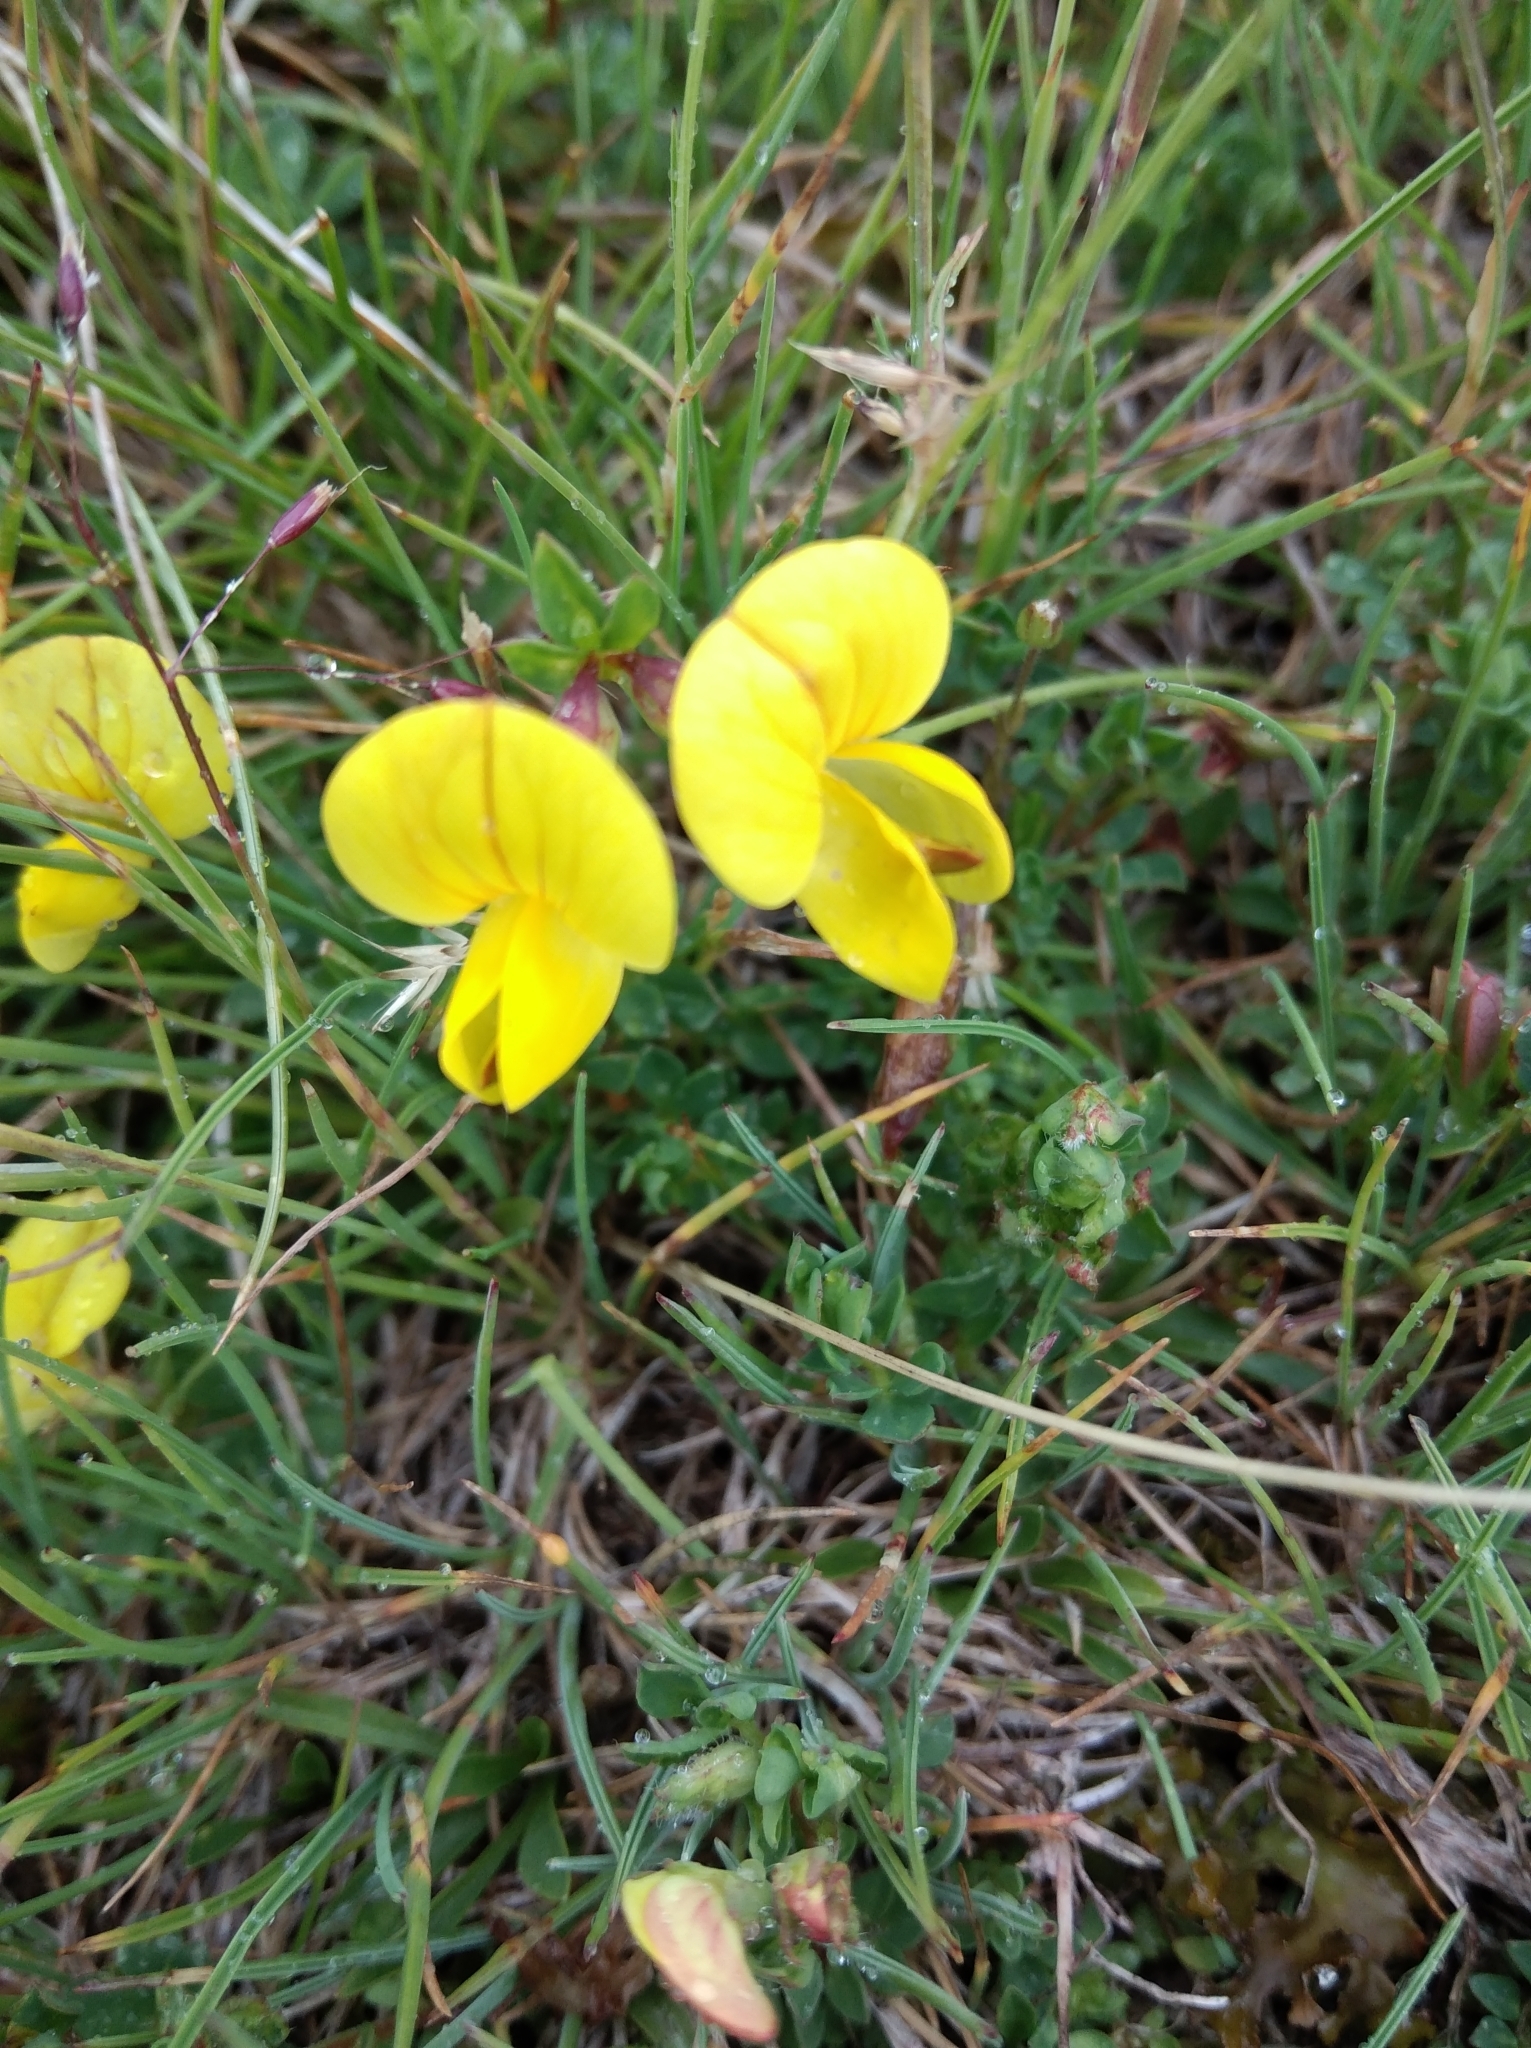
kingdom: Plantae
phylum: Tracheophyta
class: Magnoliopsida
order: Fabales
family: Fabaceae
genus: Lotus
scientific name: Lotus corniculatus
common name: Common bird's-foot-trefoil
